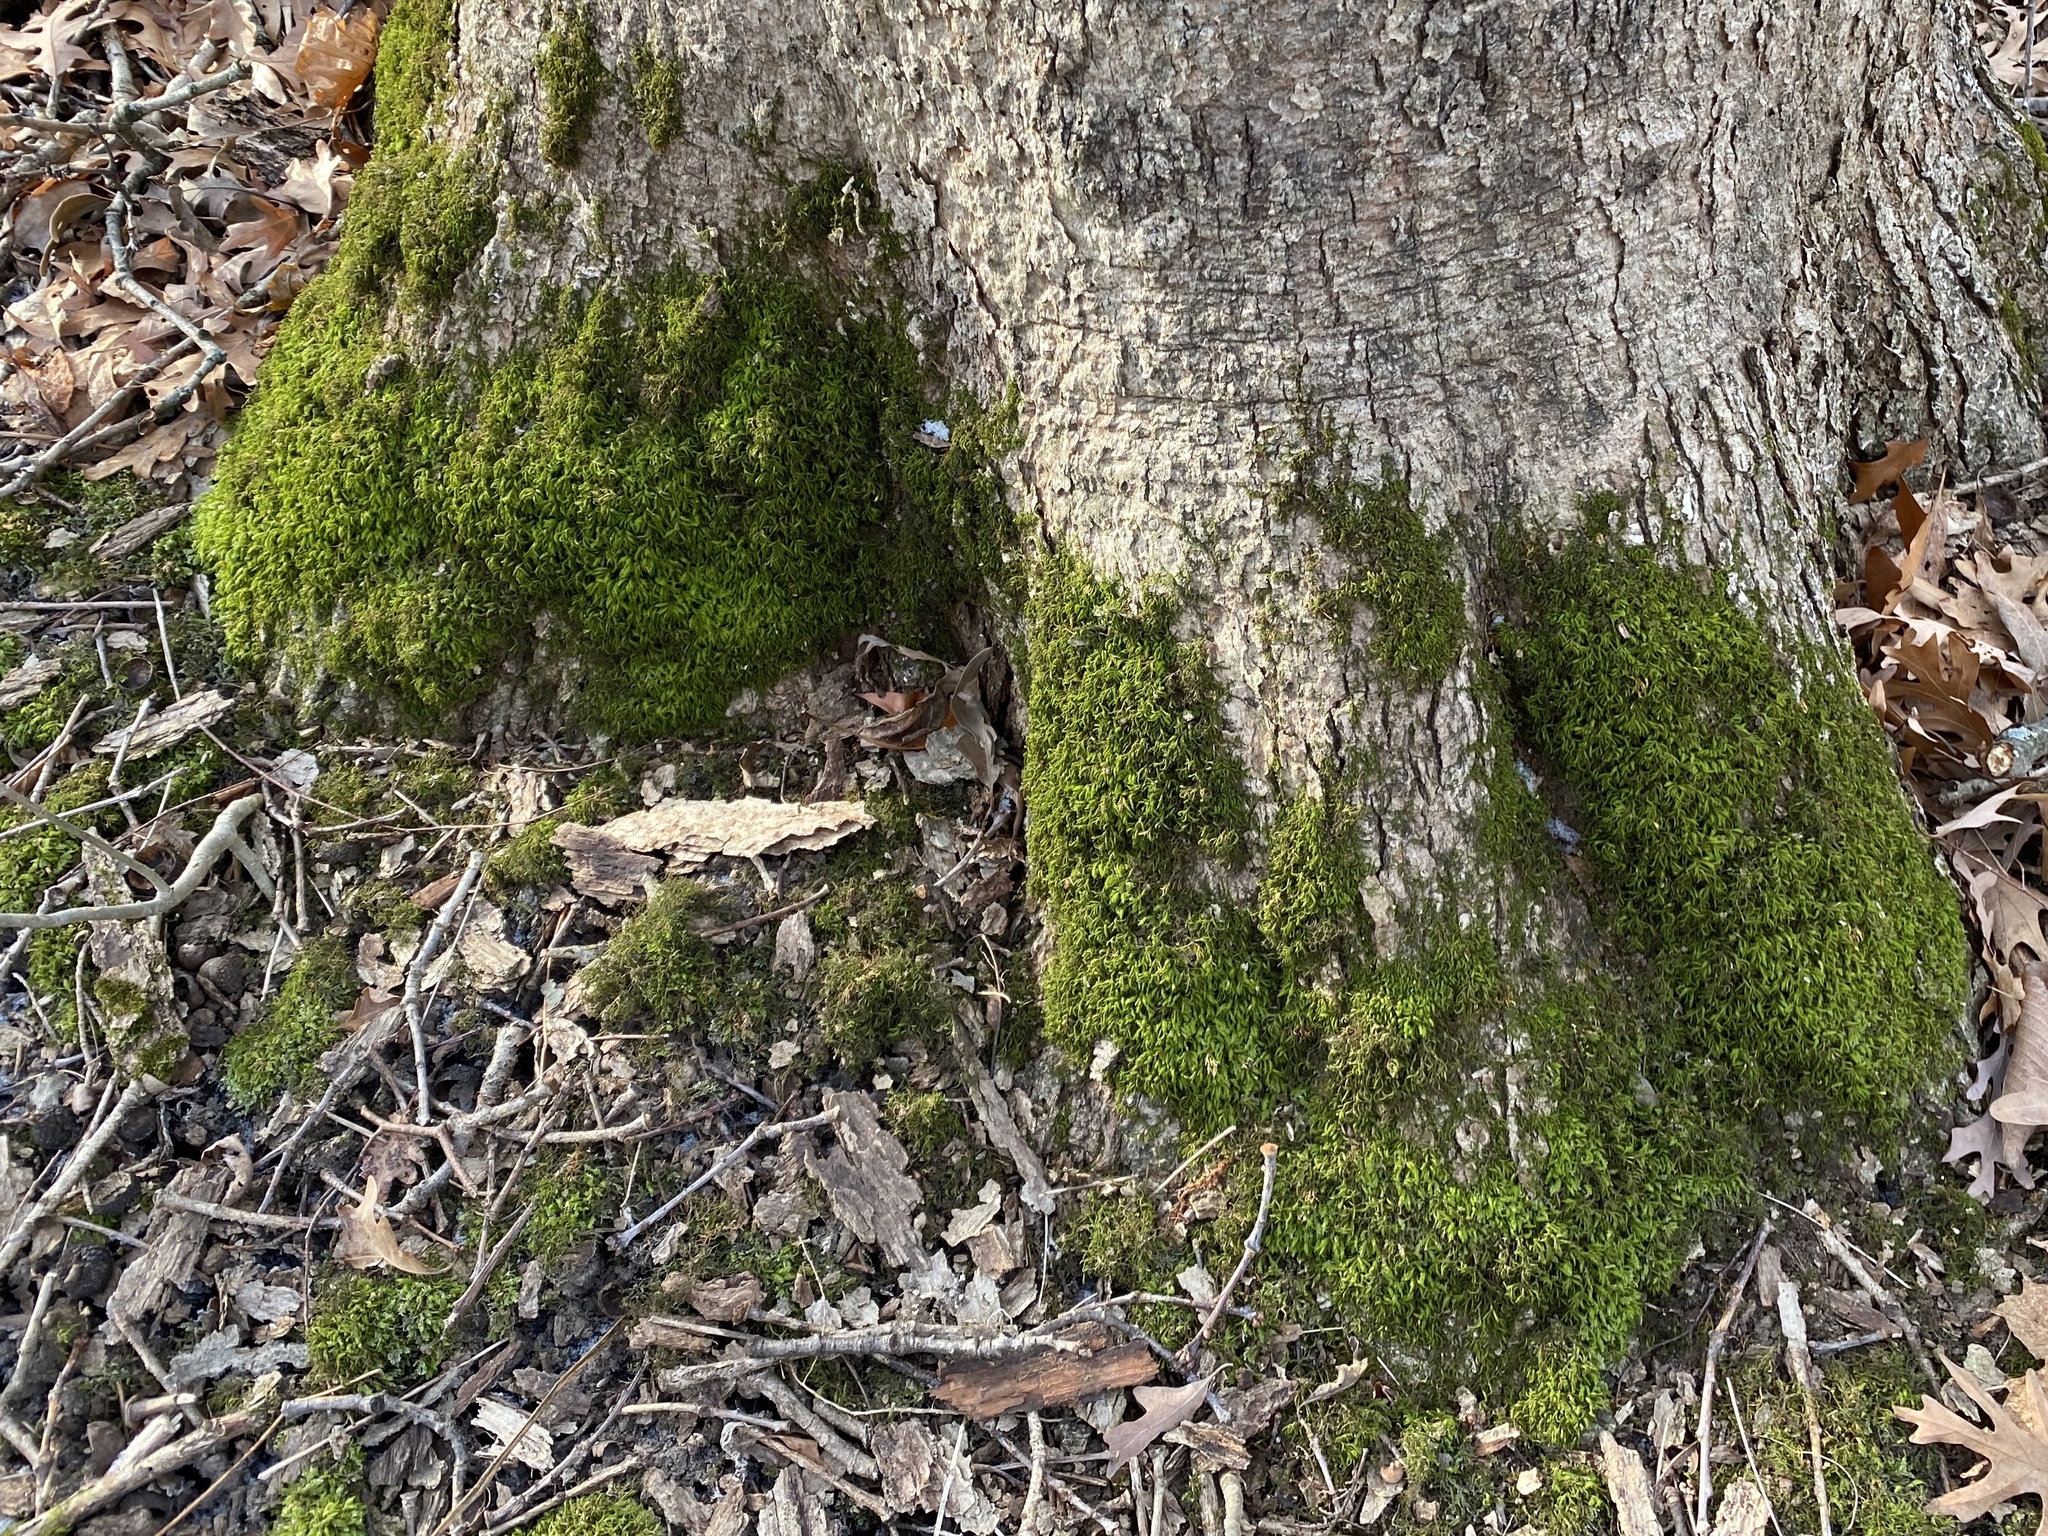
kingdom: Plantae
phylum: Bryophyta
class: Bryopsida
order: Hypnales
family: Neckeraceae
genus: Pseudanomodon
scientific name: Pseudanomodon attenuatus
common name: Tree-skirt moss
